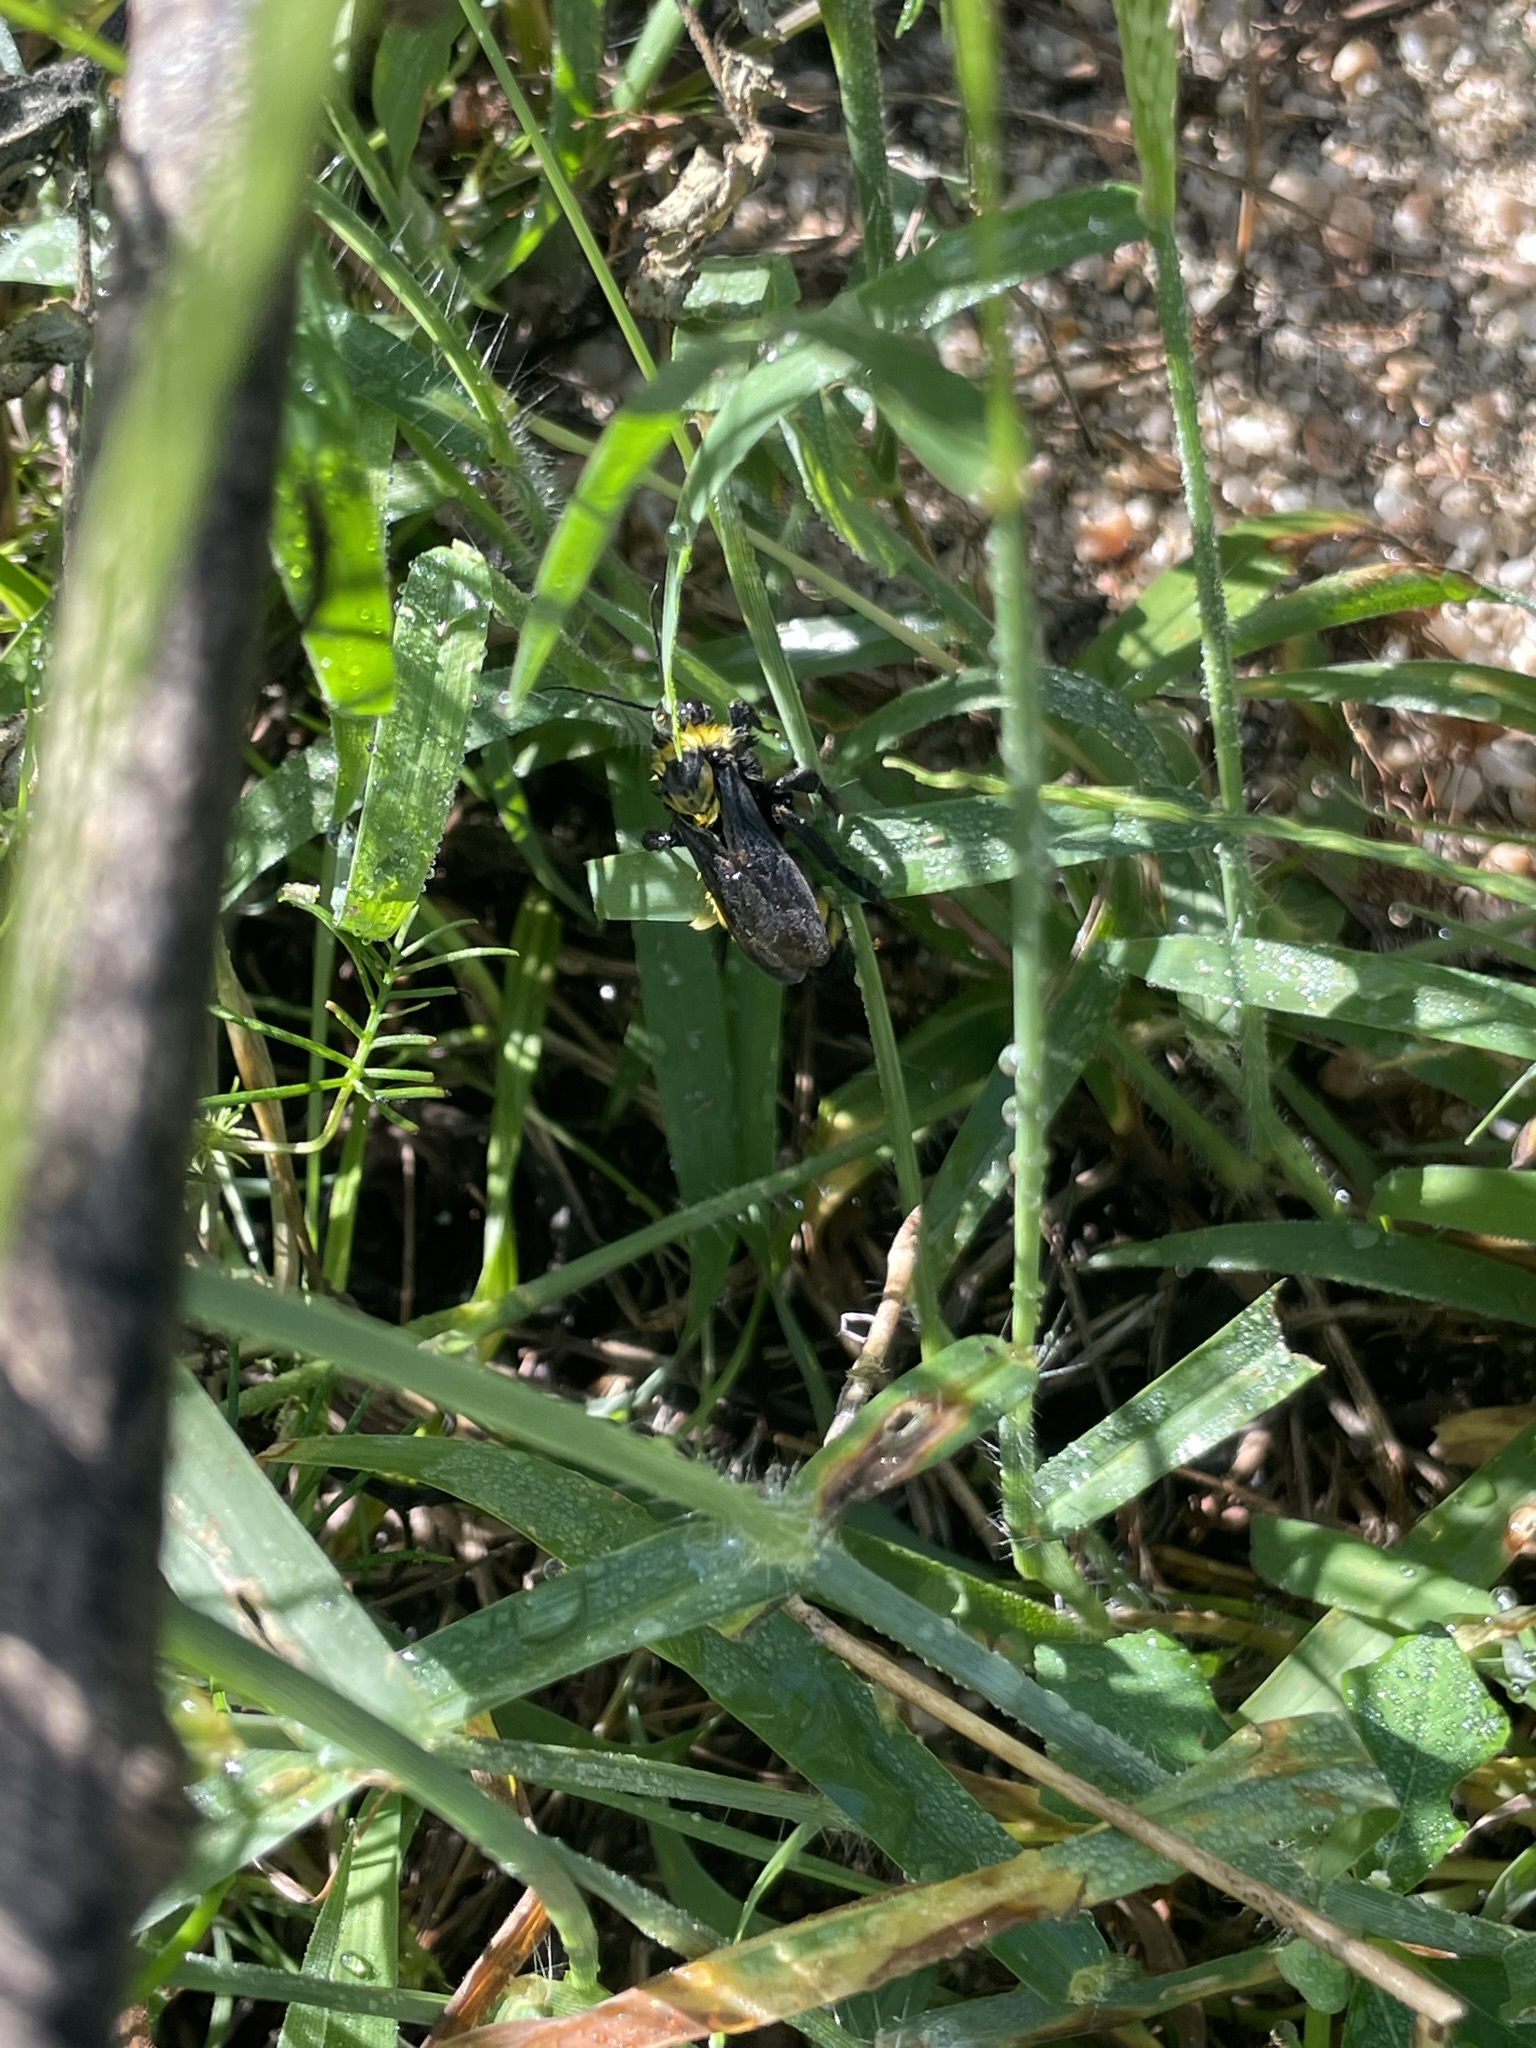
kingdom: Animalia
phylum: Arthropoda
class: Insecta
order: Hymenoptera
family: Apidae
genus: Bombus
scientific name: Bombus sonorus
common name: Sonoran bumble bee
